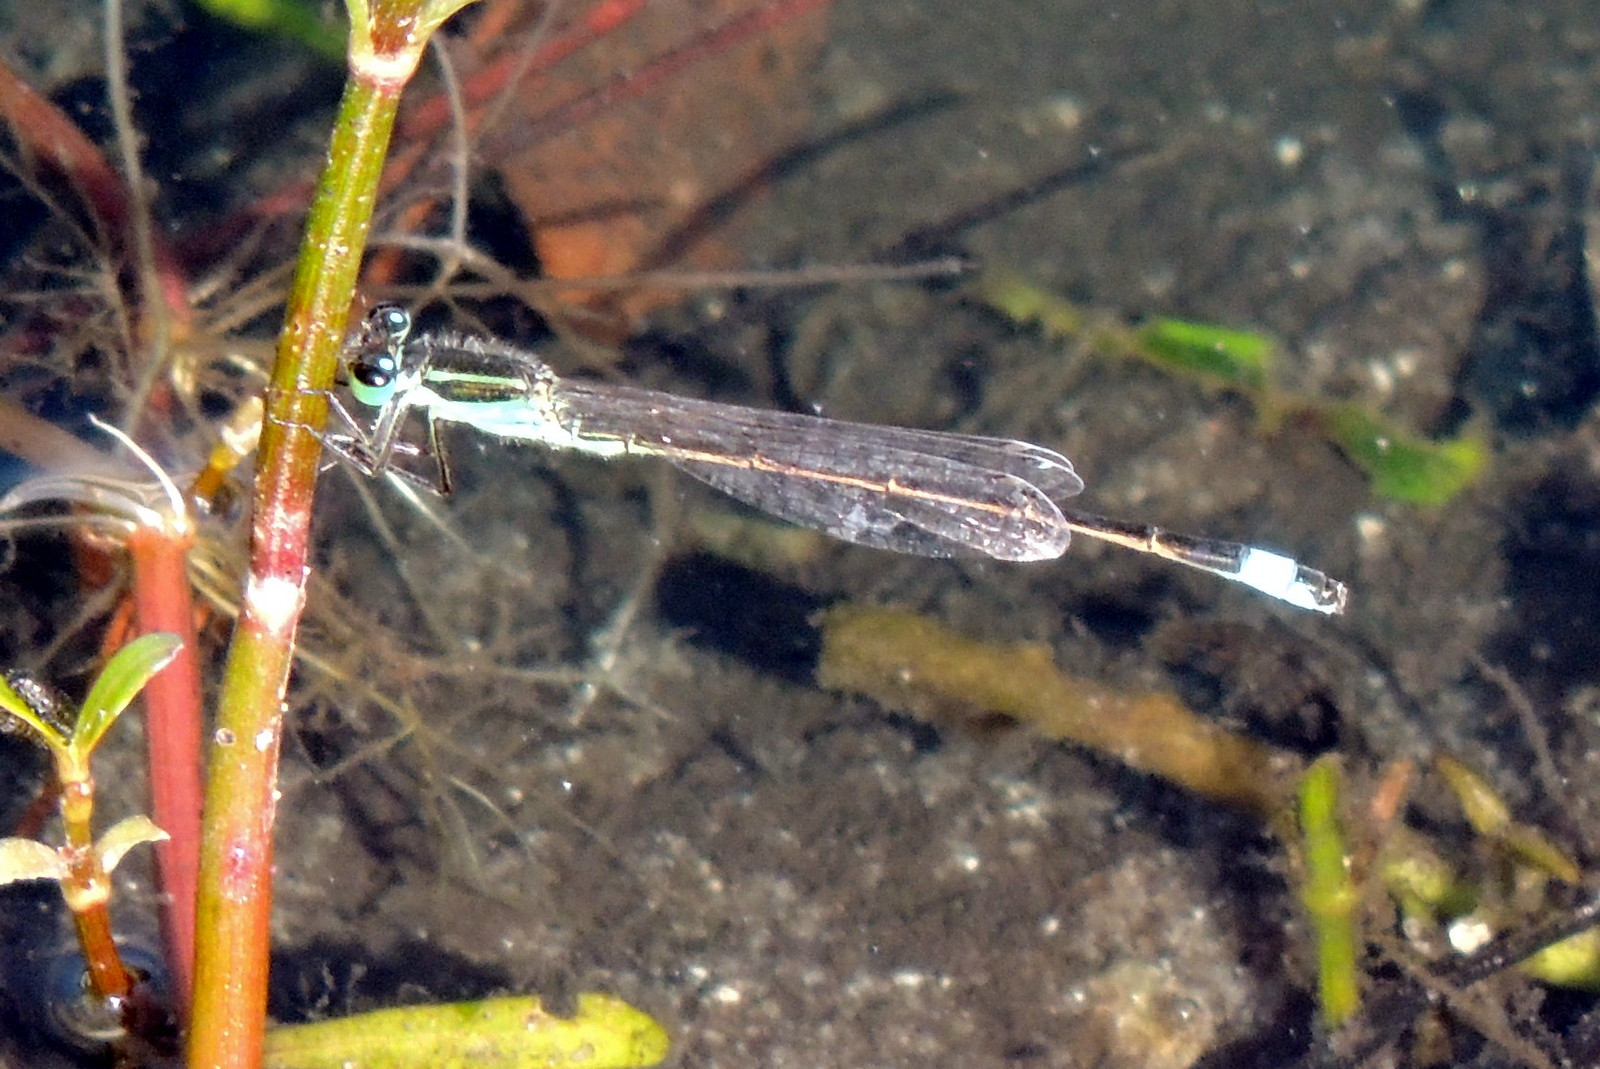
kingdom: Animalia
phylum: Arthropoda
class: Insecta
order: Odonata
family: Coenagrionidae
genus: Ischnura
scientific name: Ischnura ramburii
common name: Rambur's forktail
